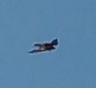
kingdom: Animalia
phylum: Chordata
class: Aves
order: Falconiformes
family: Falconidae
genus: Falco
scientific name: Falco peregrinus
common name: Peregrine falcon
